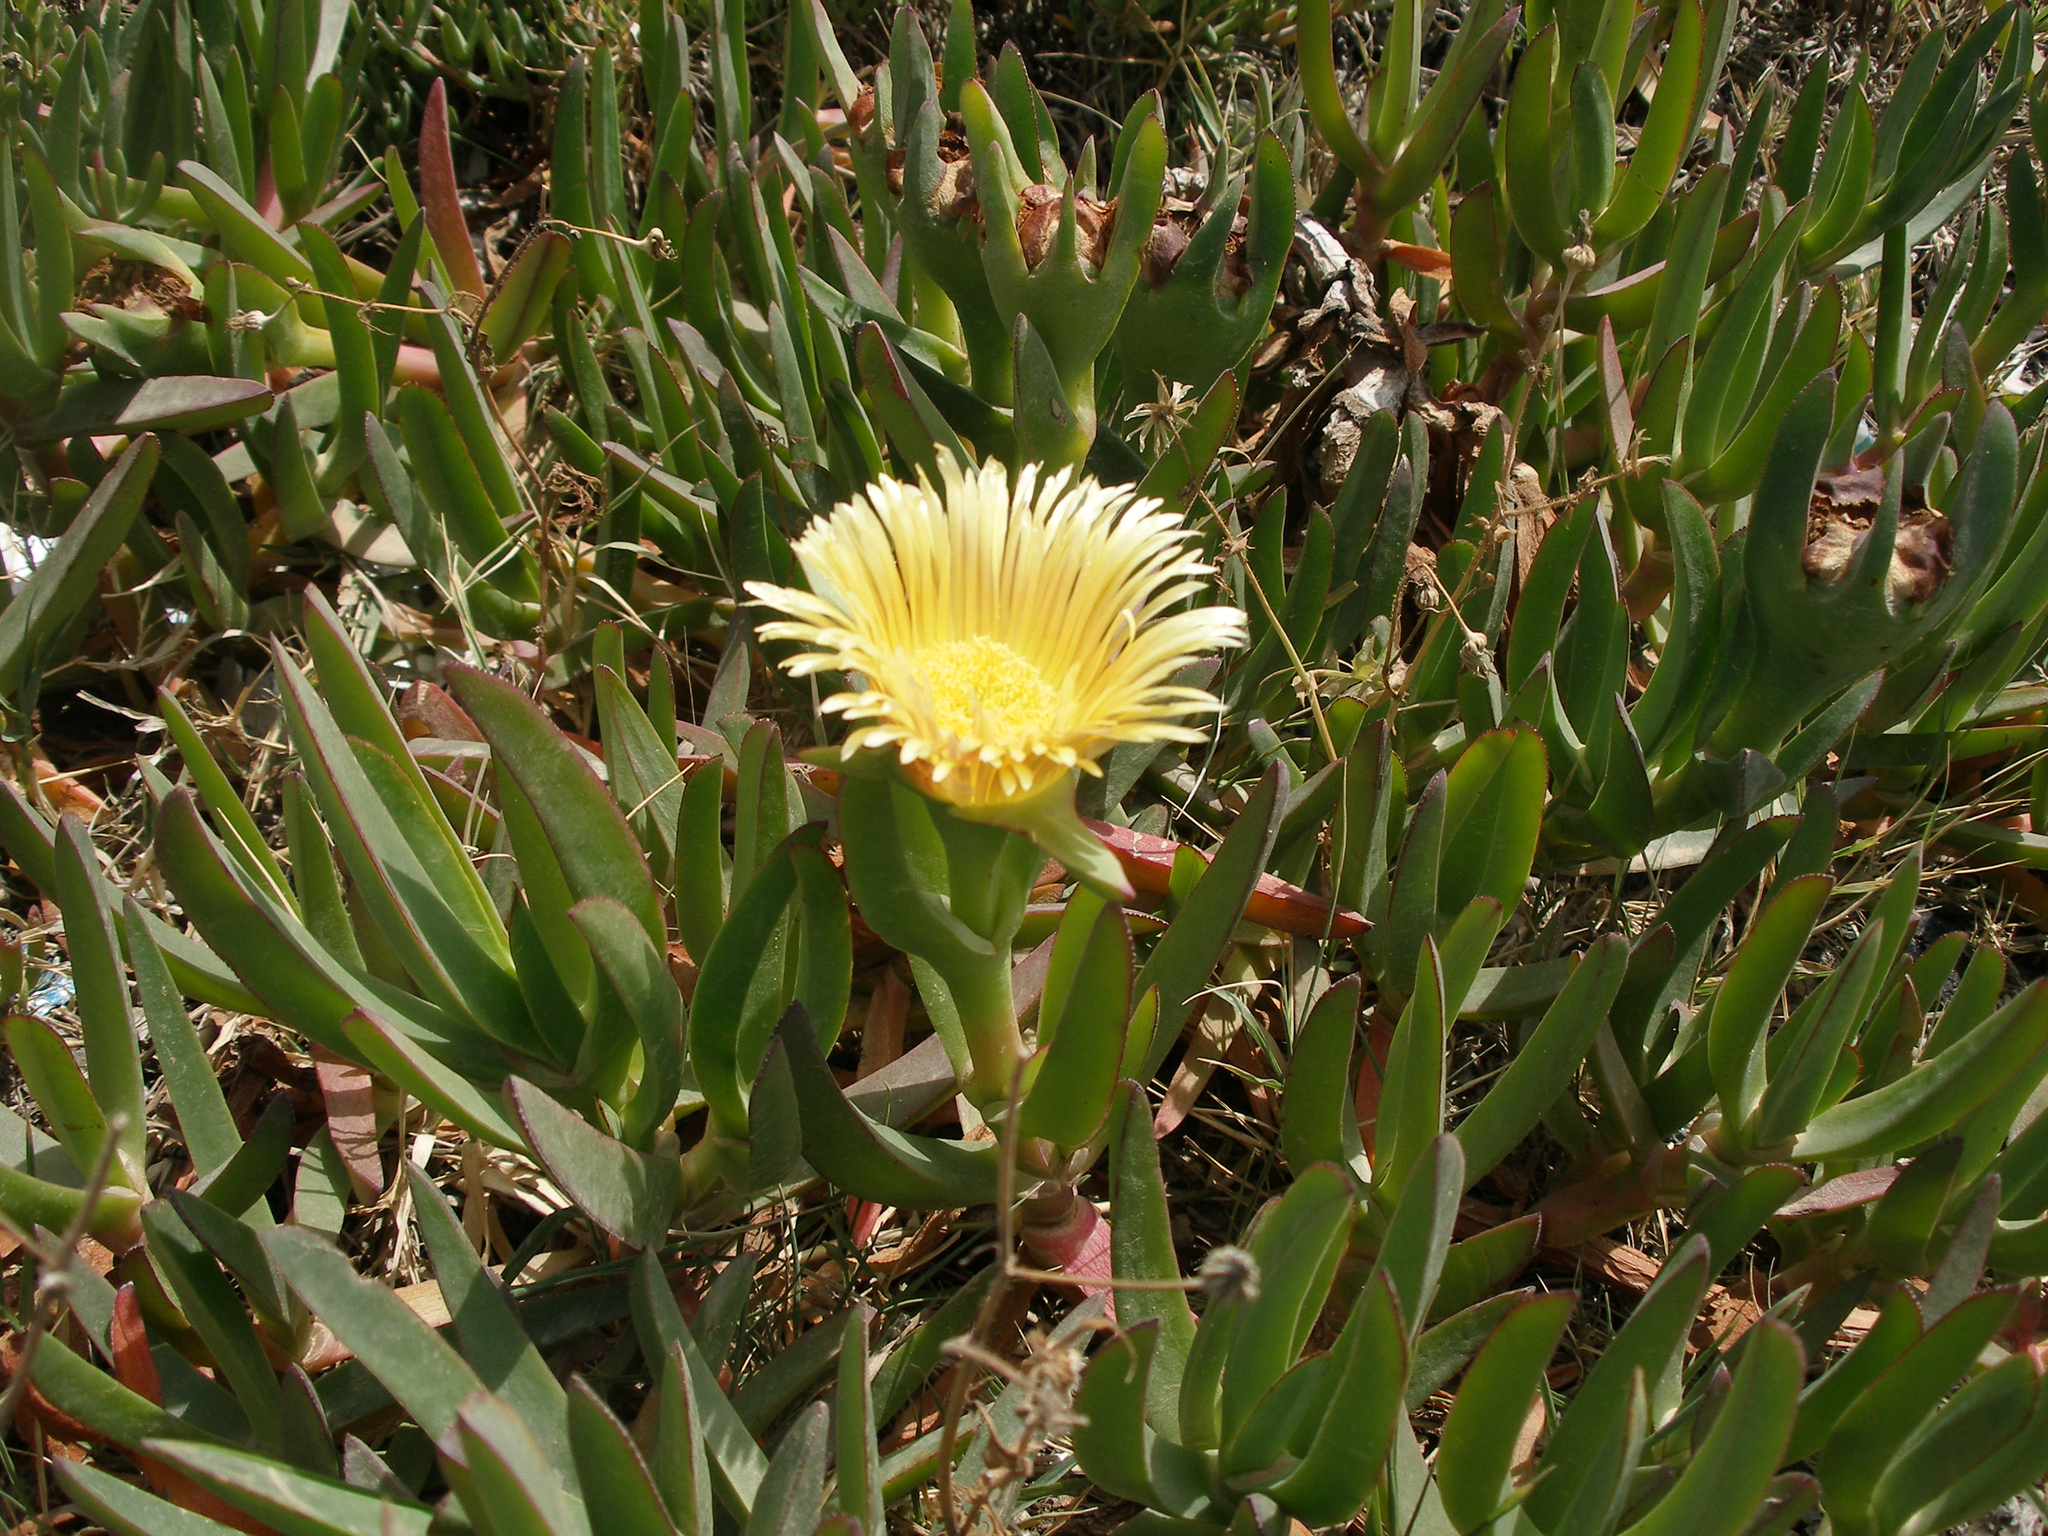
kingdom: Plantae
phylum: Tracheophyta
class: Magnoliopsida
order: Caryophyllales
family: Aizoaceae
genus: Carpobrotus
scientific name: Carpobrotus edulis
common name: Hottentot-fig
